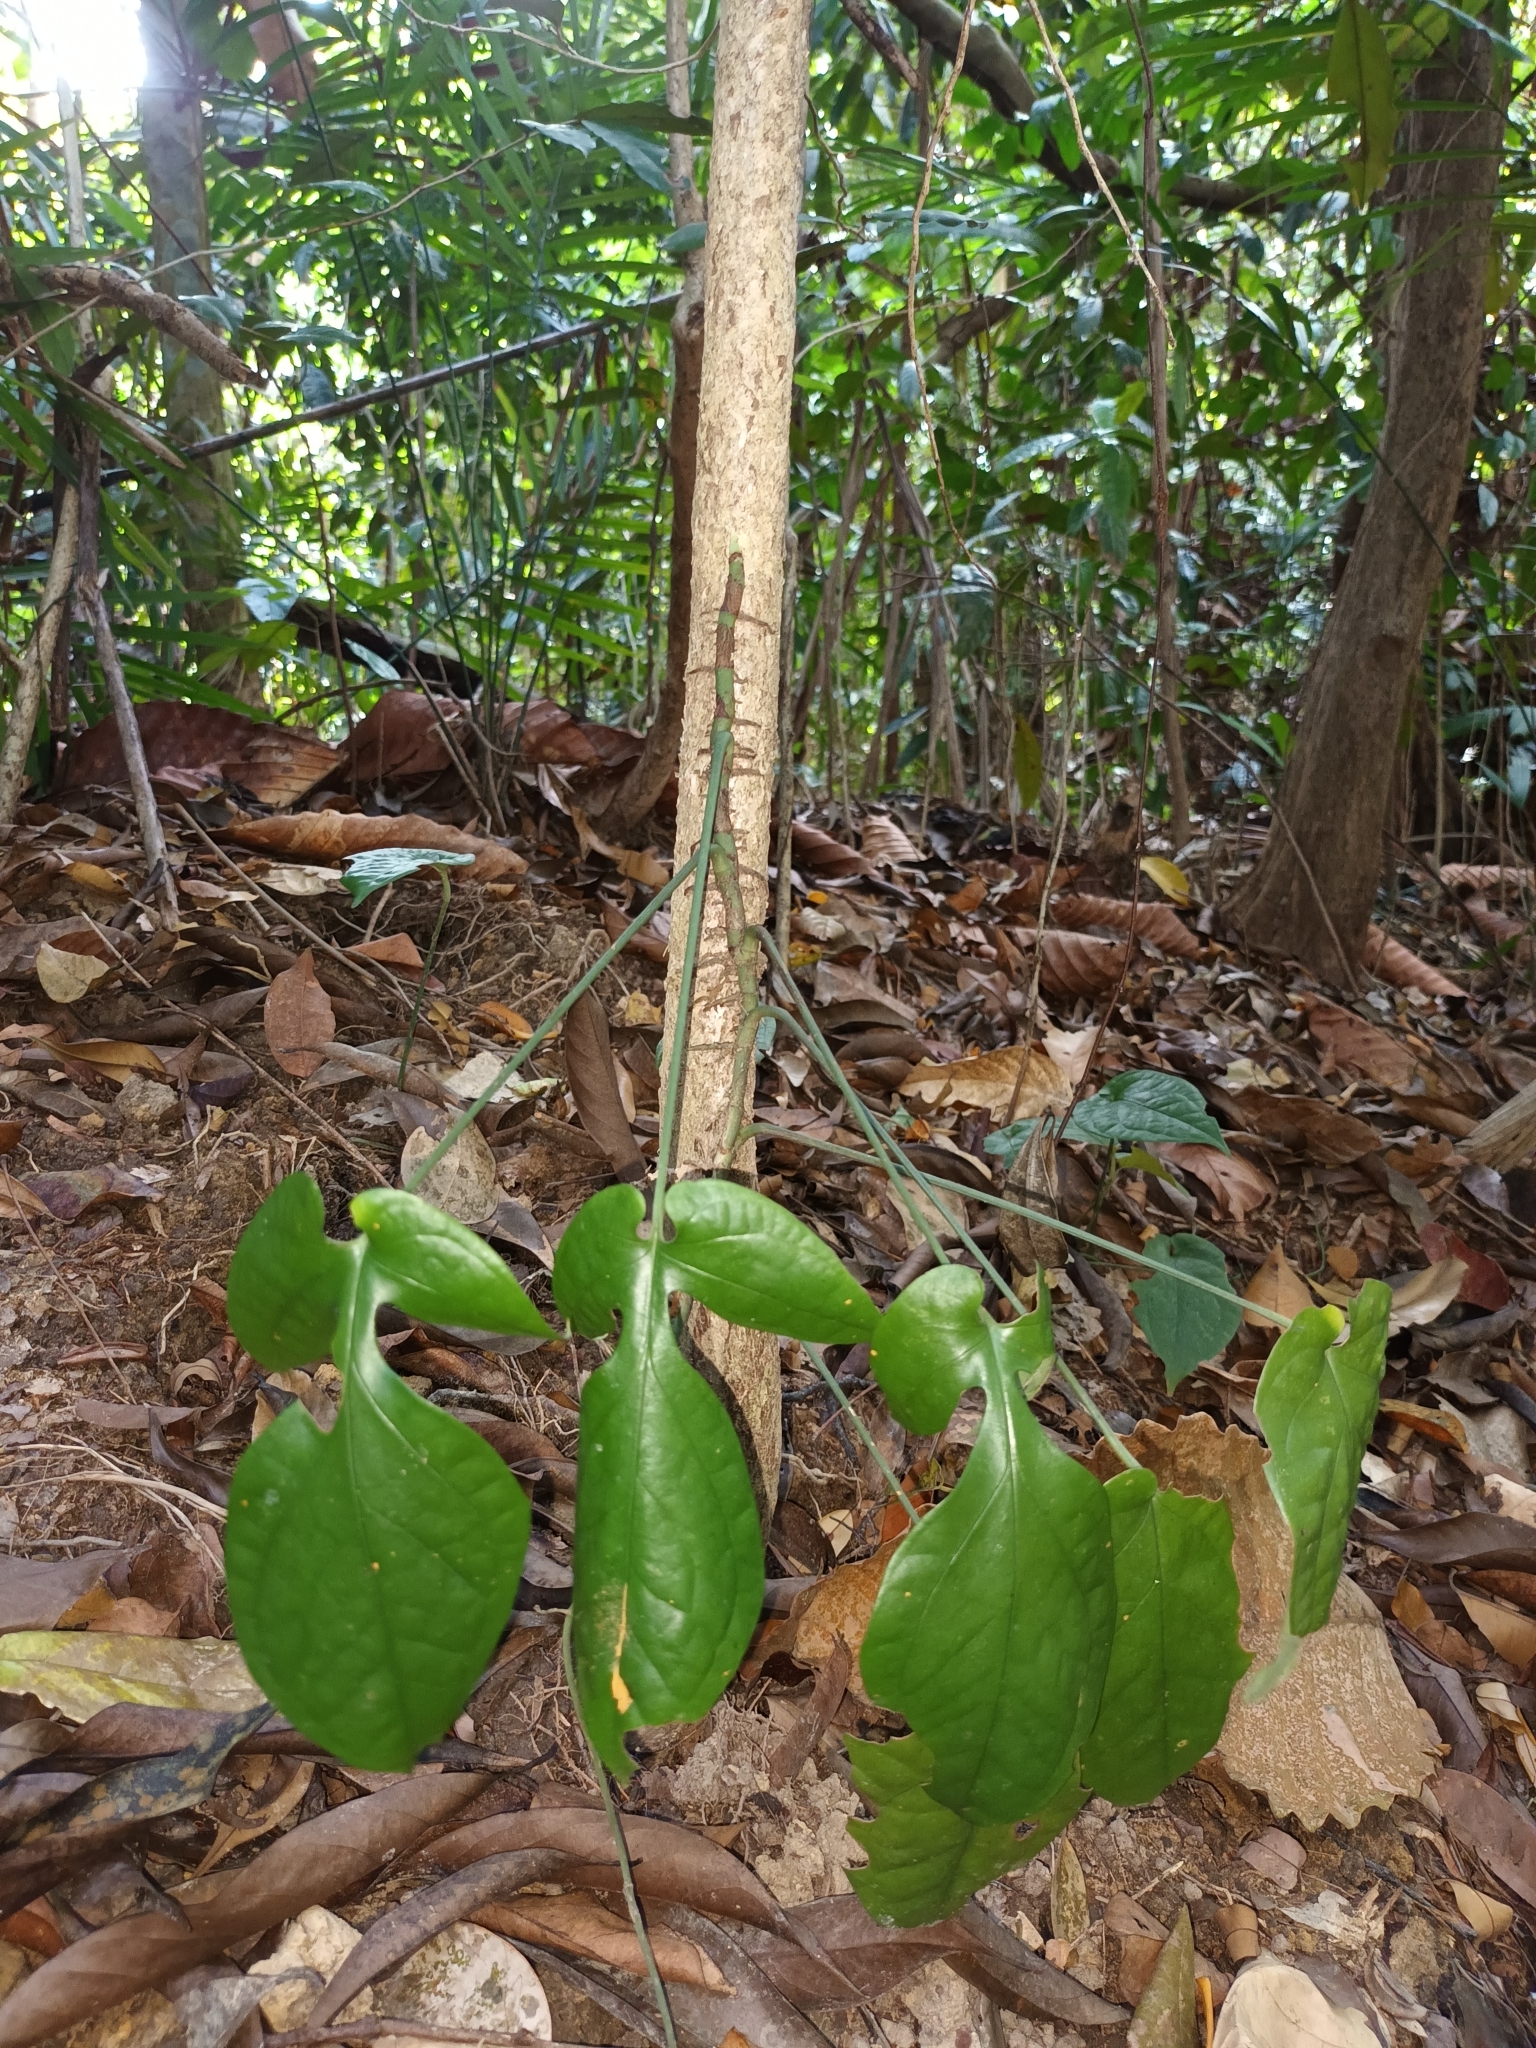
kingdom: Plantae
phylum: Tracheophyta
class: Liliopsida
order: Alismatales
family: Araceae
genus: Amydrium
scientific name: Amydrium medium
